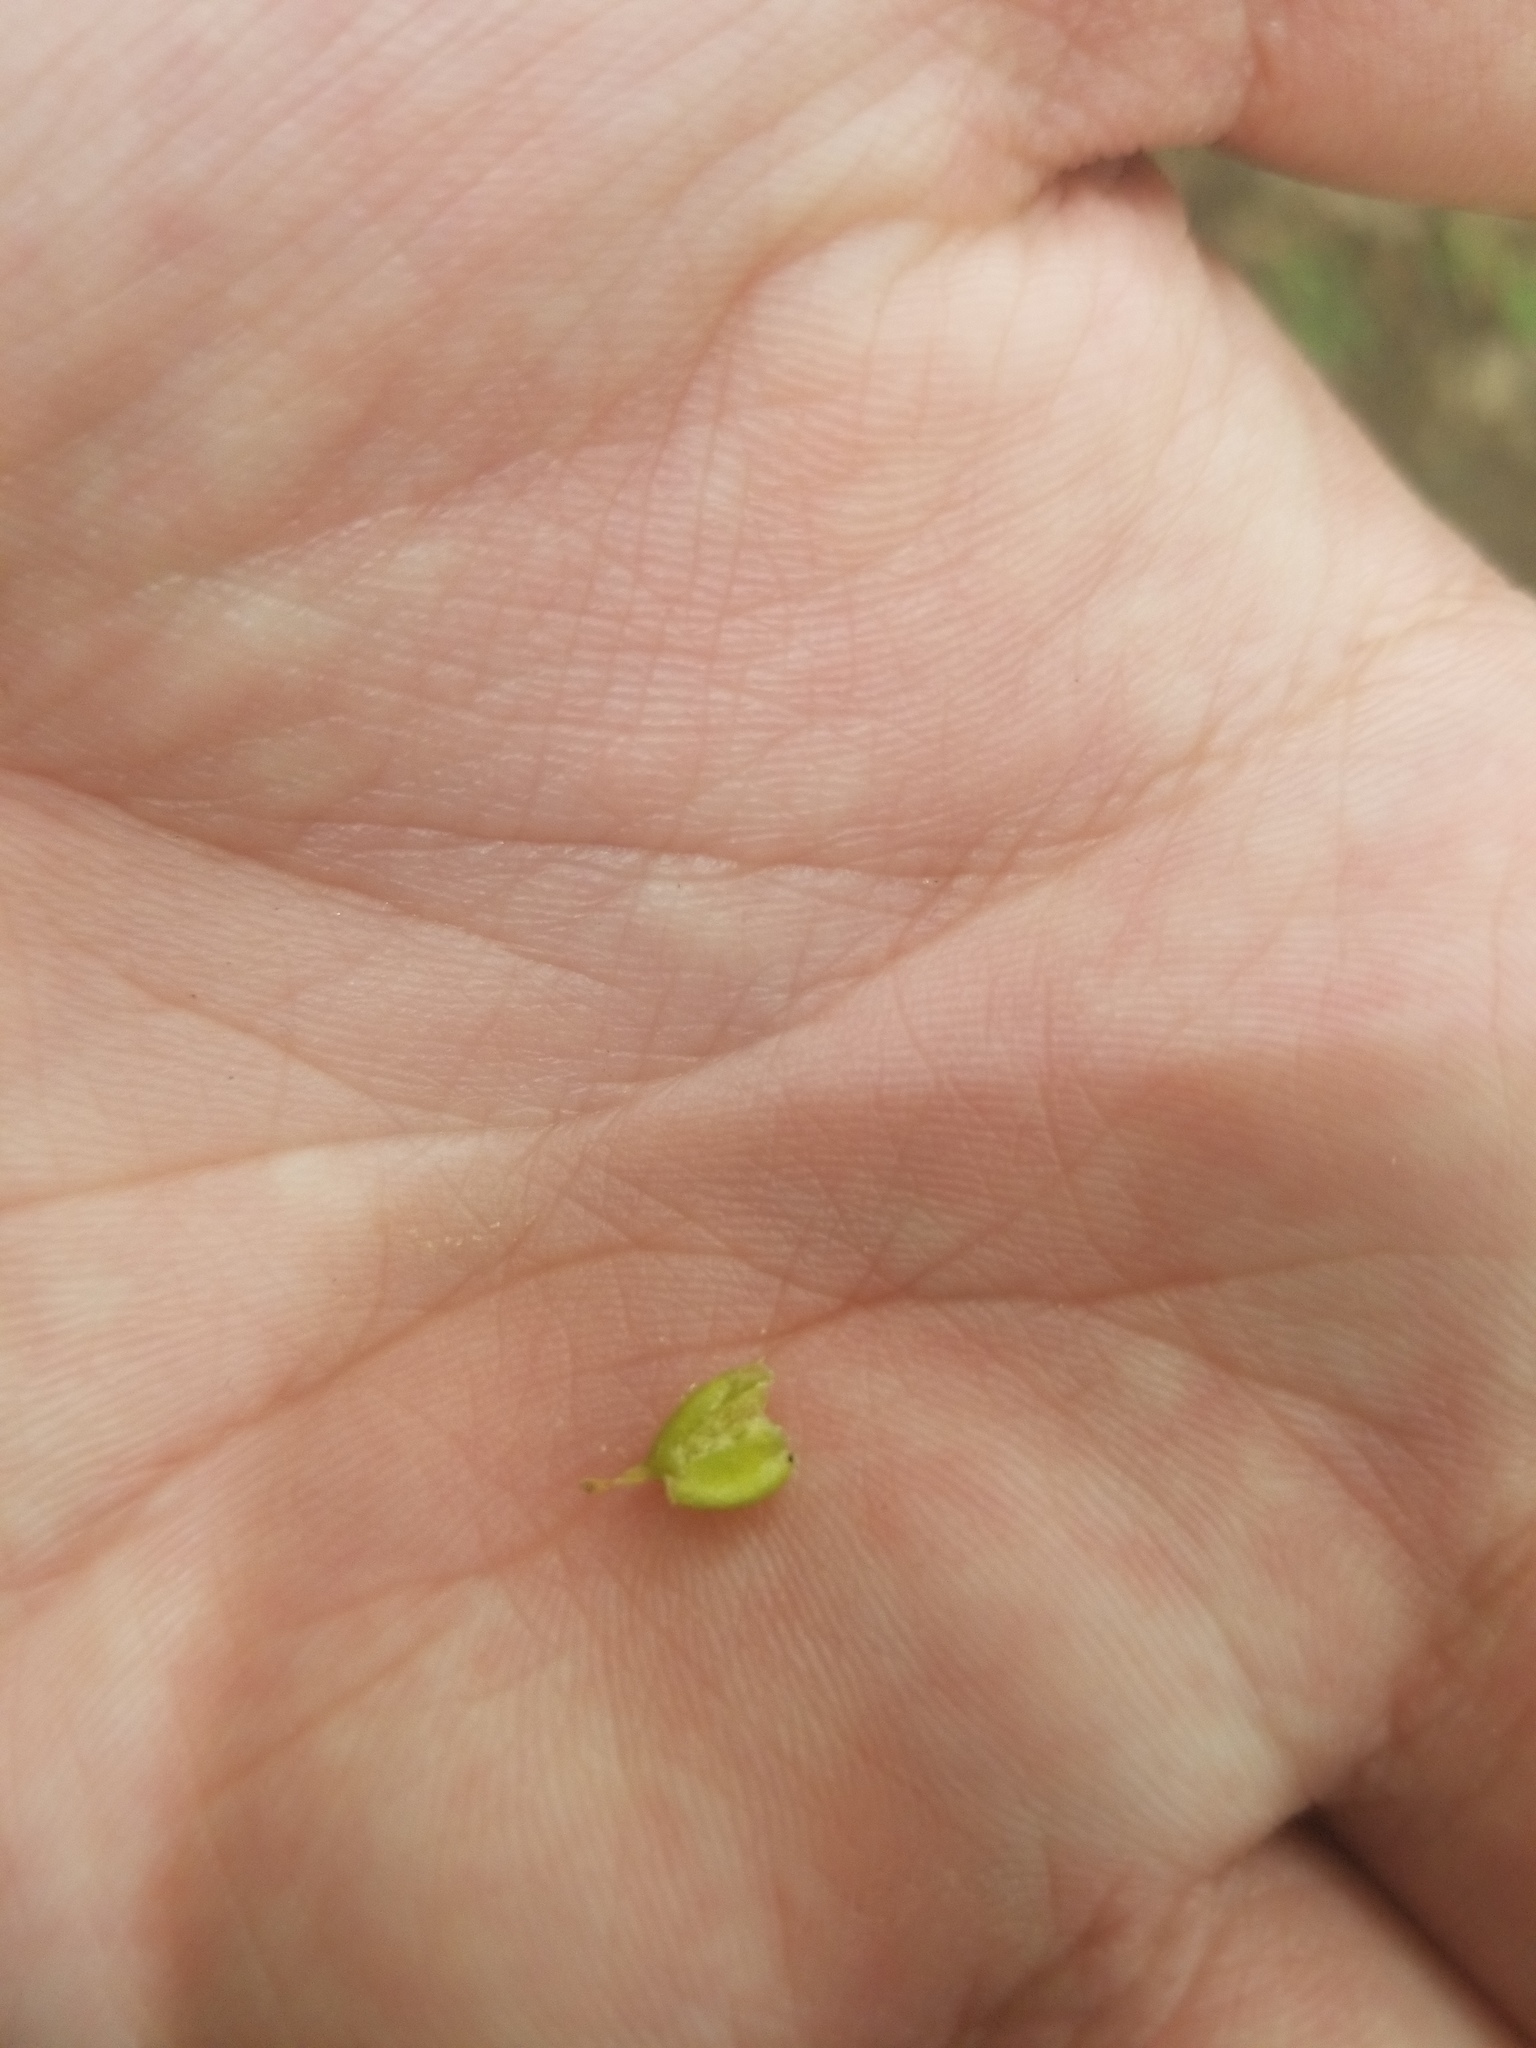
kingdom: Plantae
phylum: Tracheophyta
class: Magnoliopsida
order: Gentianales
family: Gentianaceae
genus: Obolaria
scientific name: Obolaria virginica
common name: Pennywort
